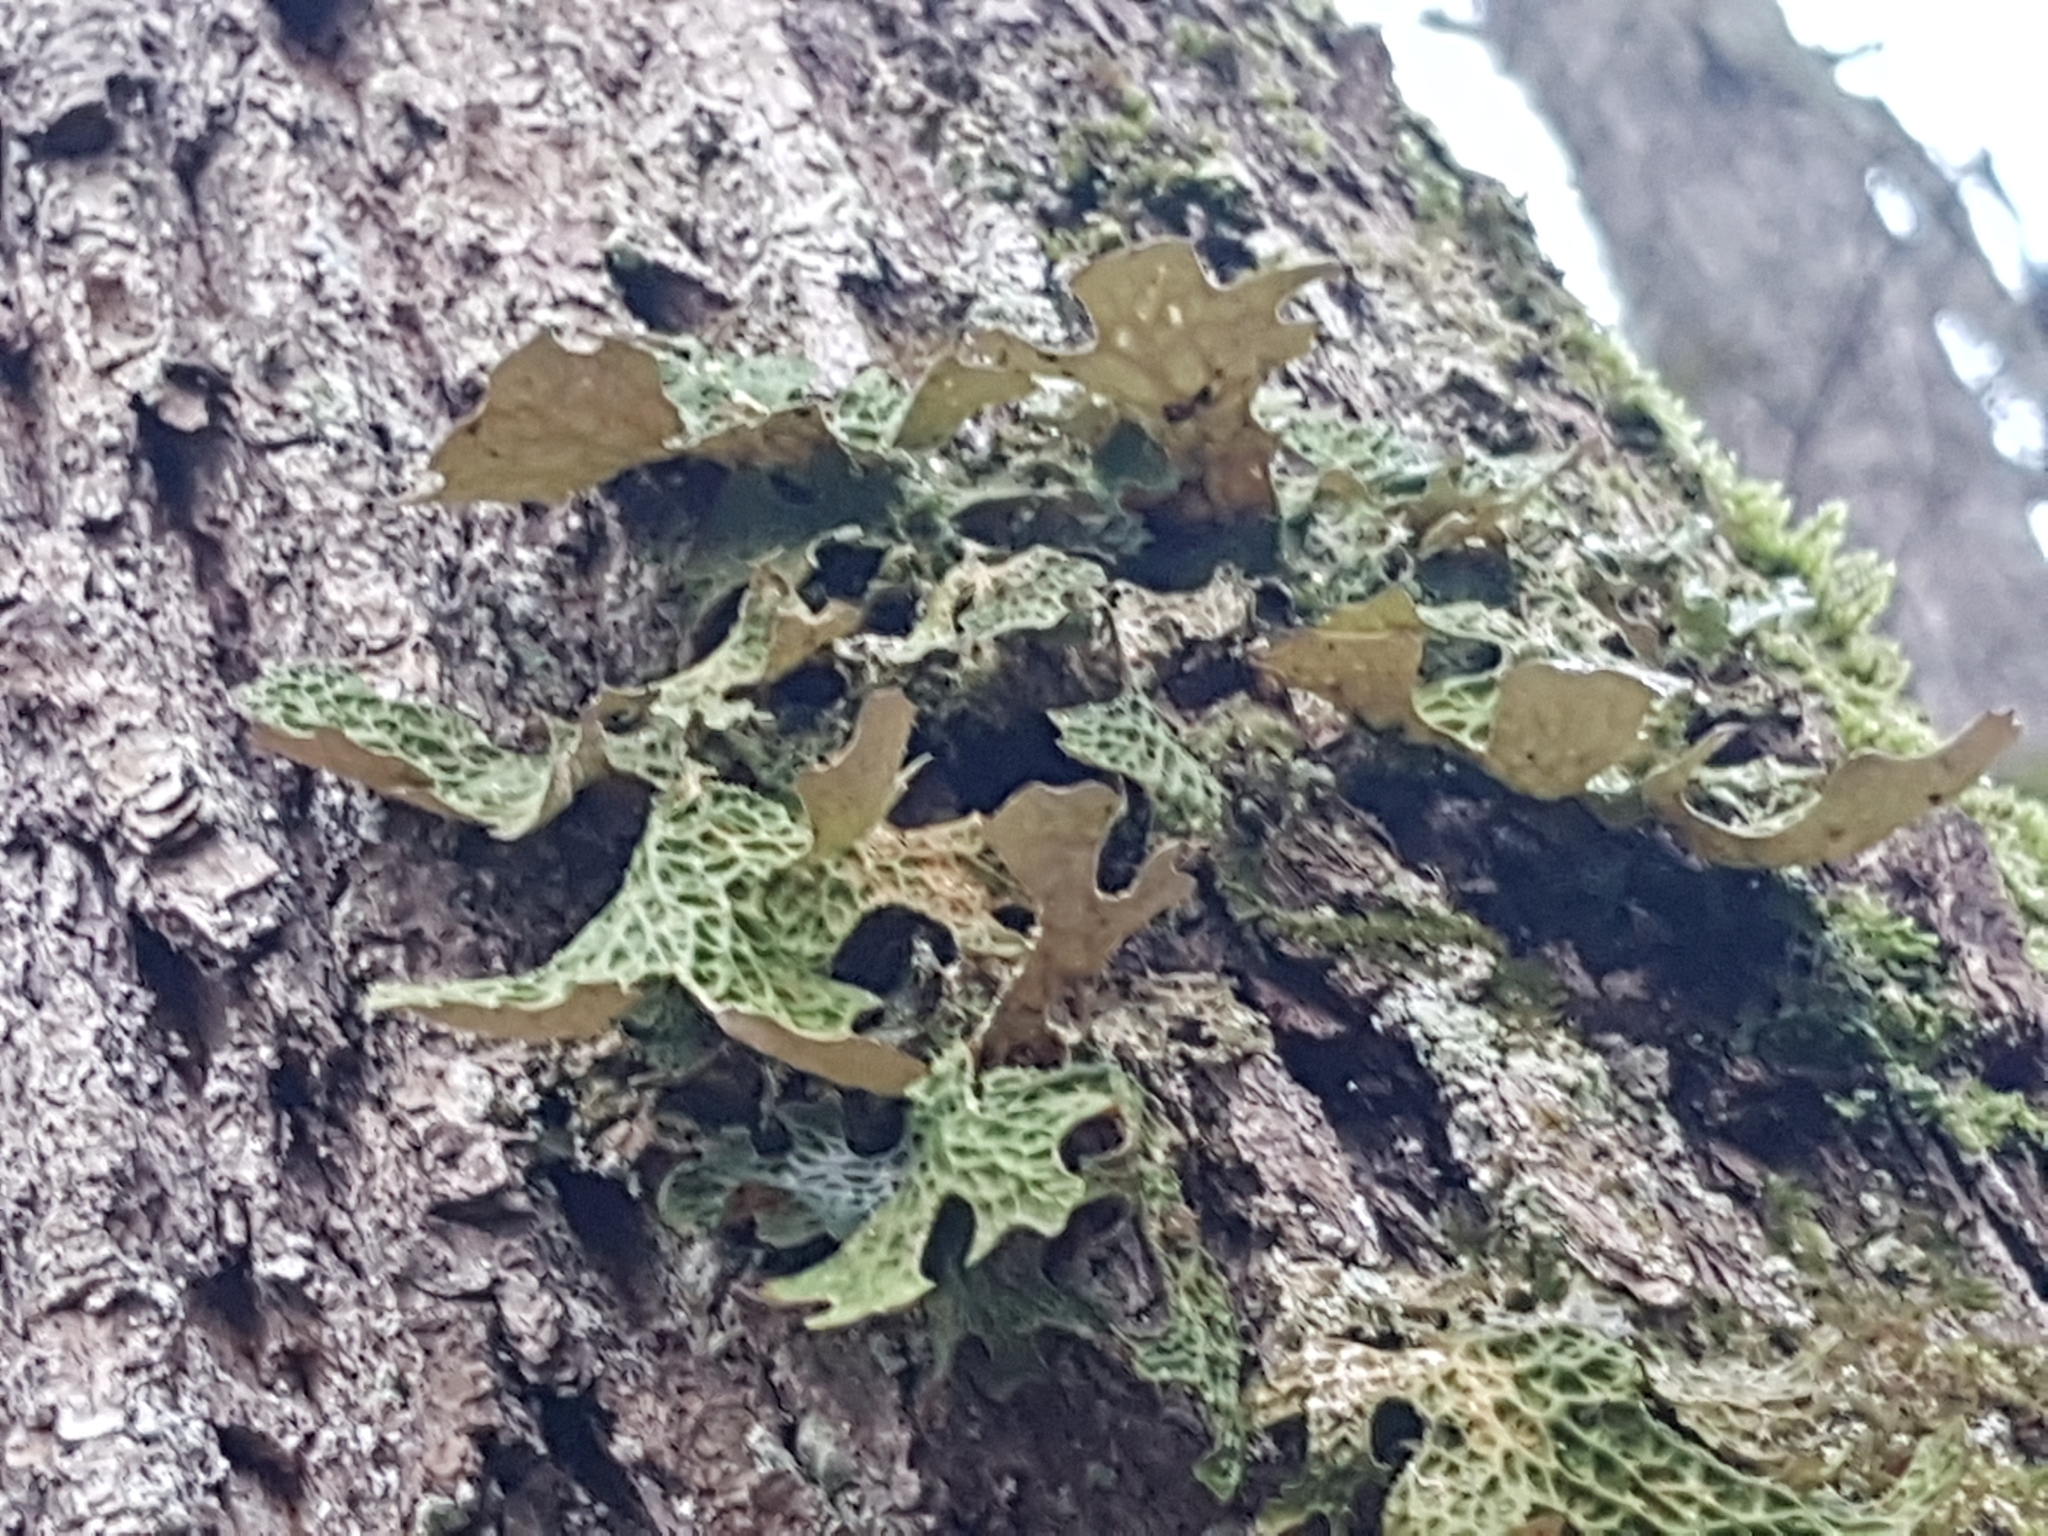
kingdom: Fungi
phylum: Ascomycota
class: Lecanoromycetes
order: Peltigerales
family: Lobariaceae
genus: Lobaria
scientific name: Lobaria pulmonaria
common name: Lungwort
